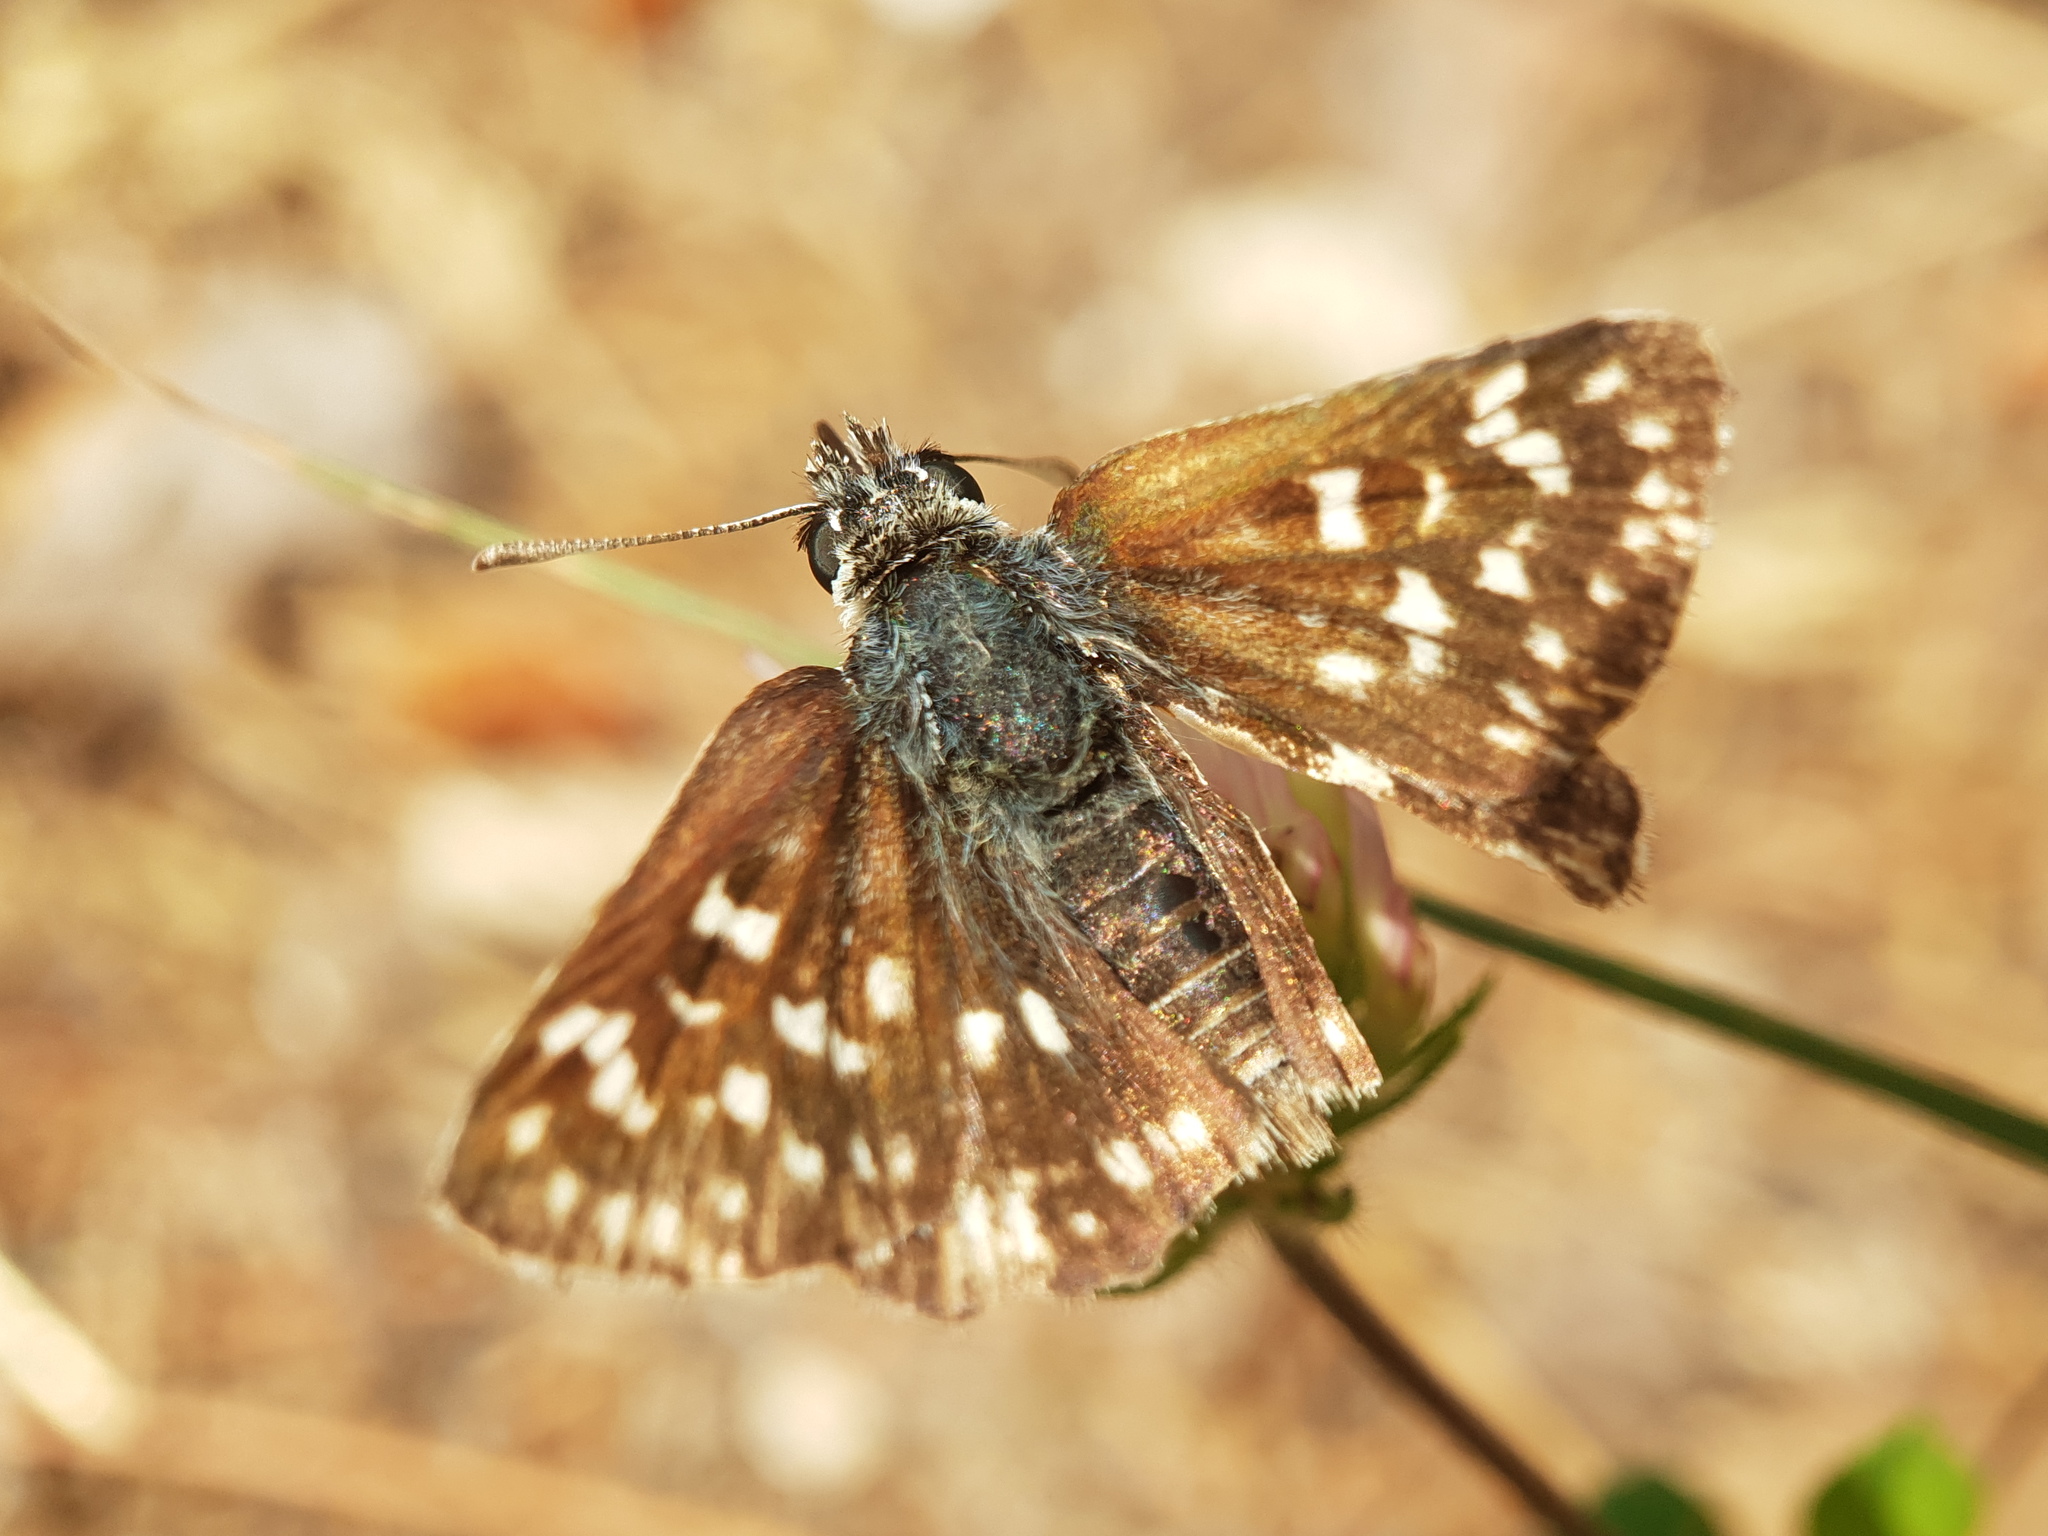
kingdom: Animalia
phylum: Arthropoda
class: Insecta
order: Lepidoptera
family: Hesperiidae
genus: Spialia
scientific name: Spialia sertorius
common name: Red underwing skipper
